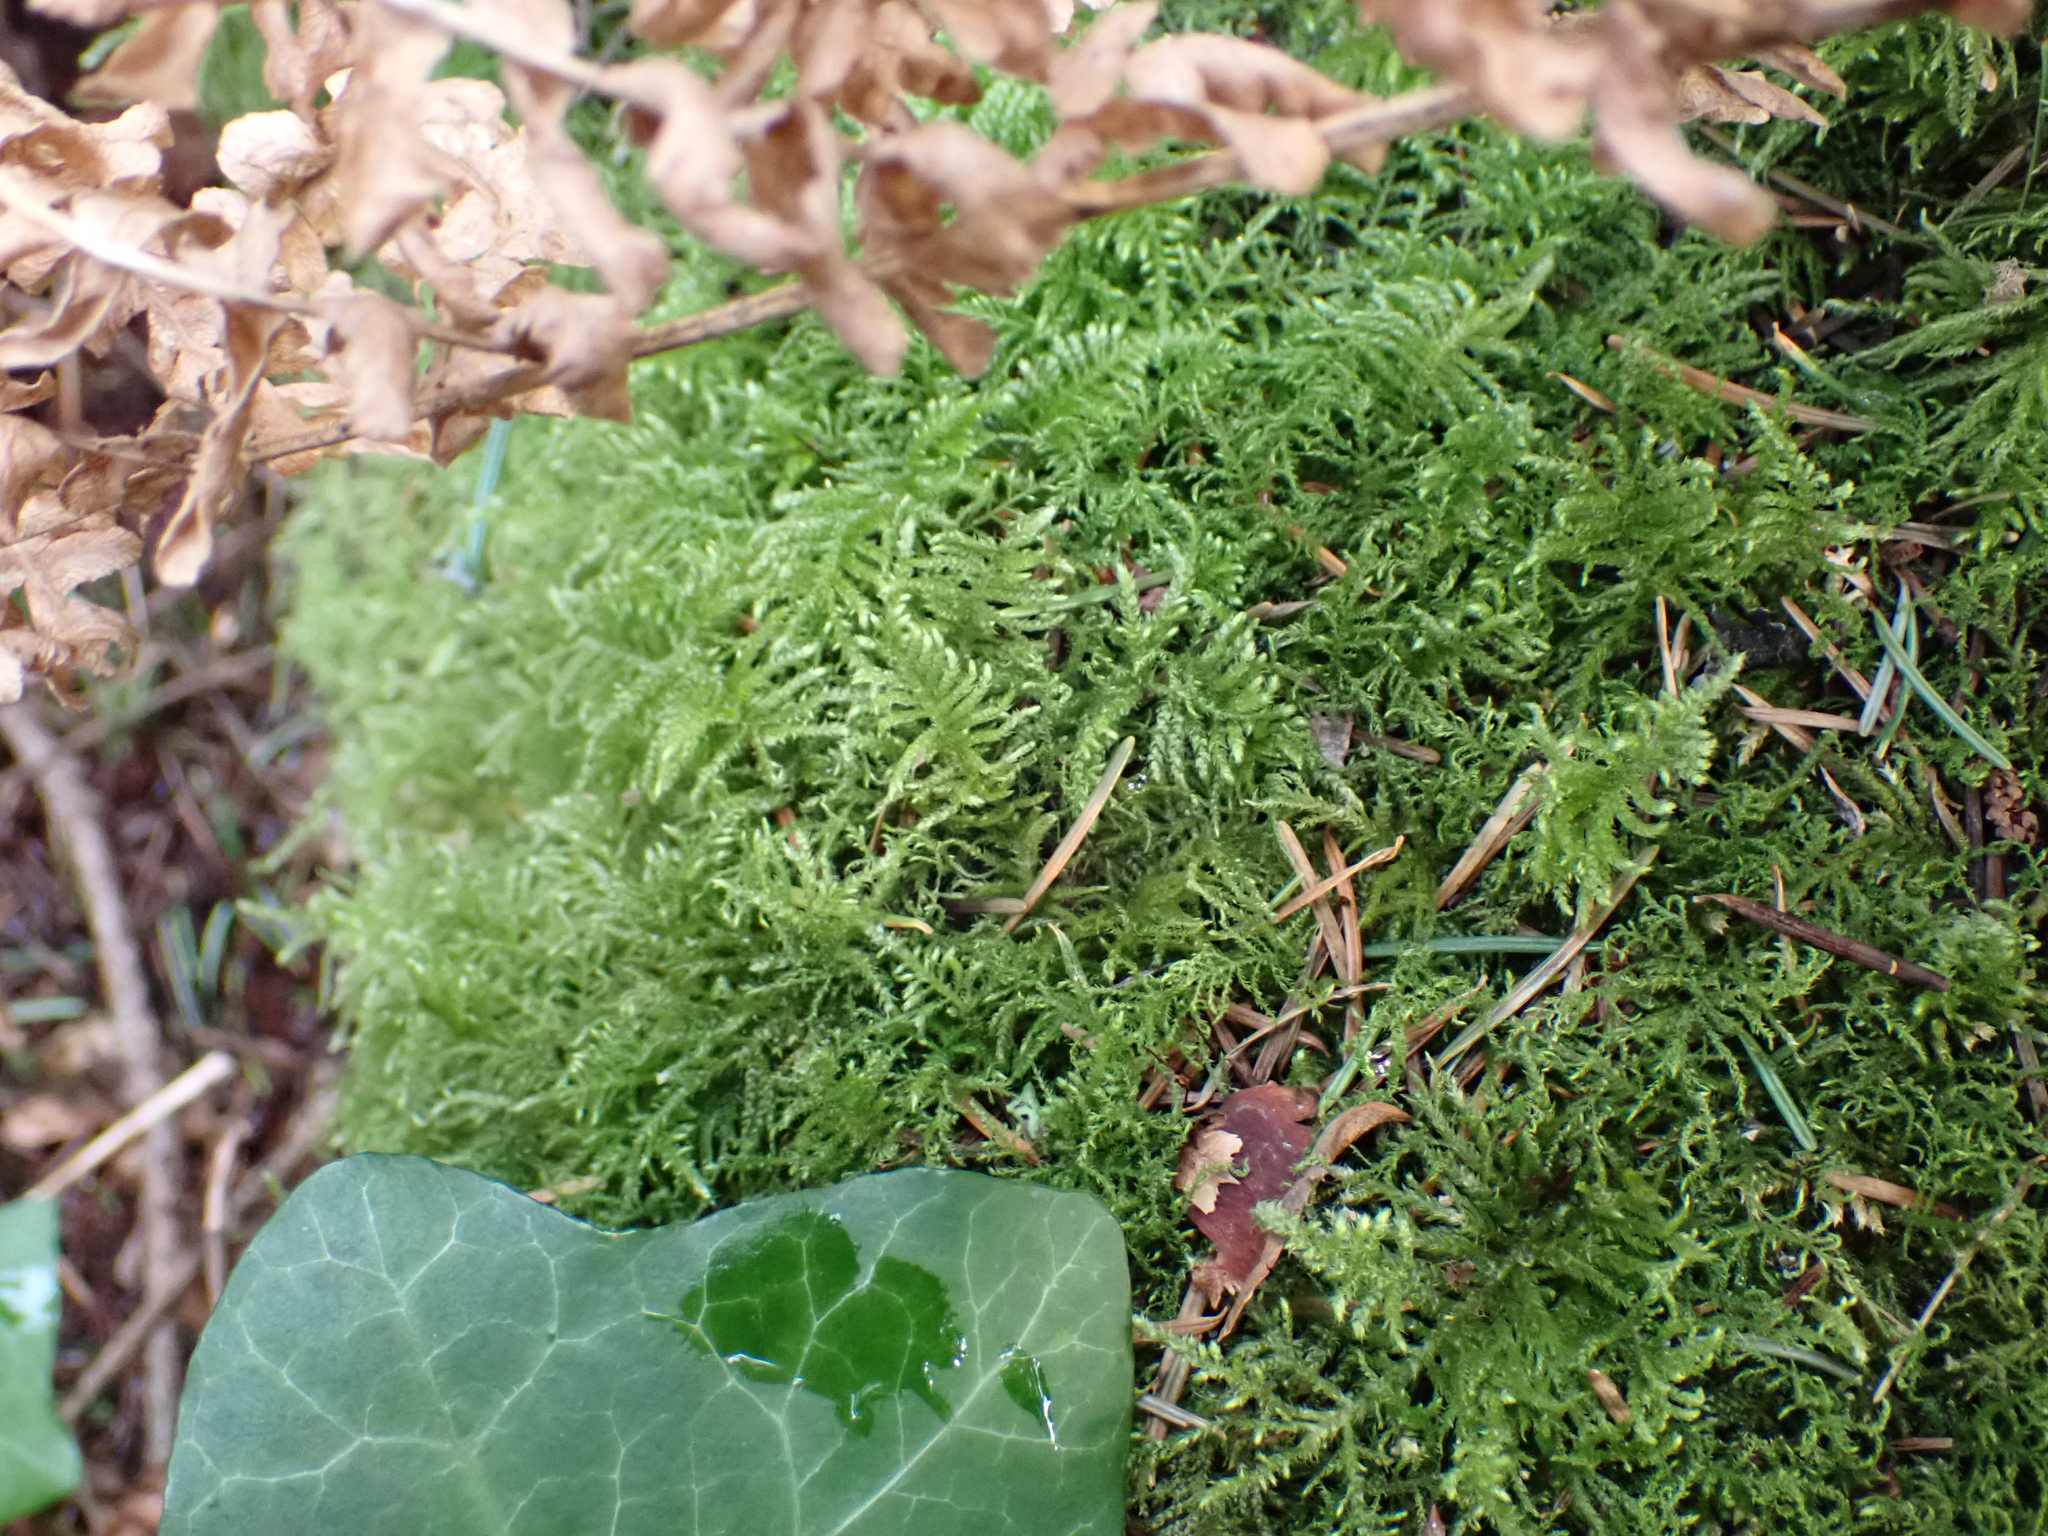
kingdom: Plantae
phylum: Bryophyta
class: Bryopsida
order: Hypnales
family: Brachytheciaceae
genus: Kindbergia
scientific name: Kindbergia oregana
